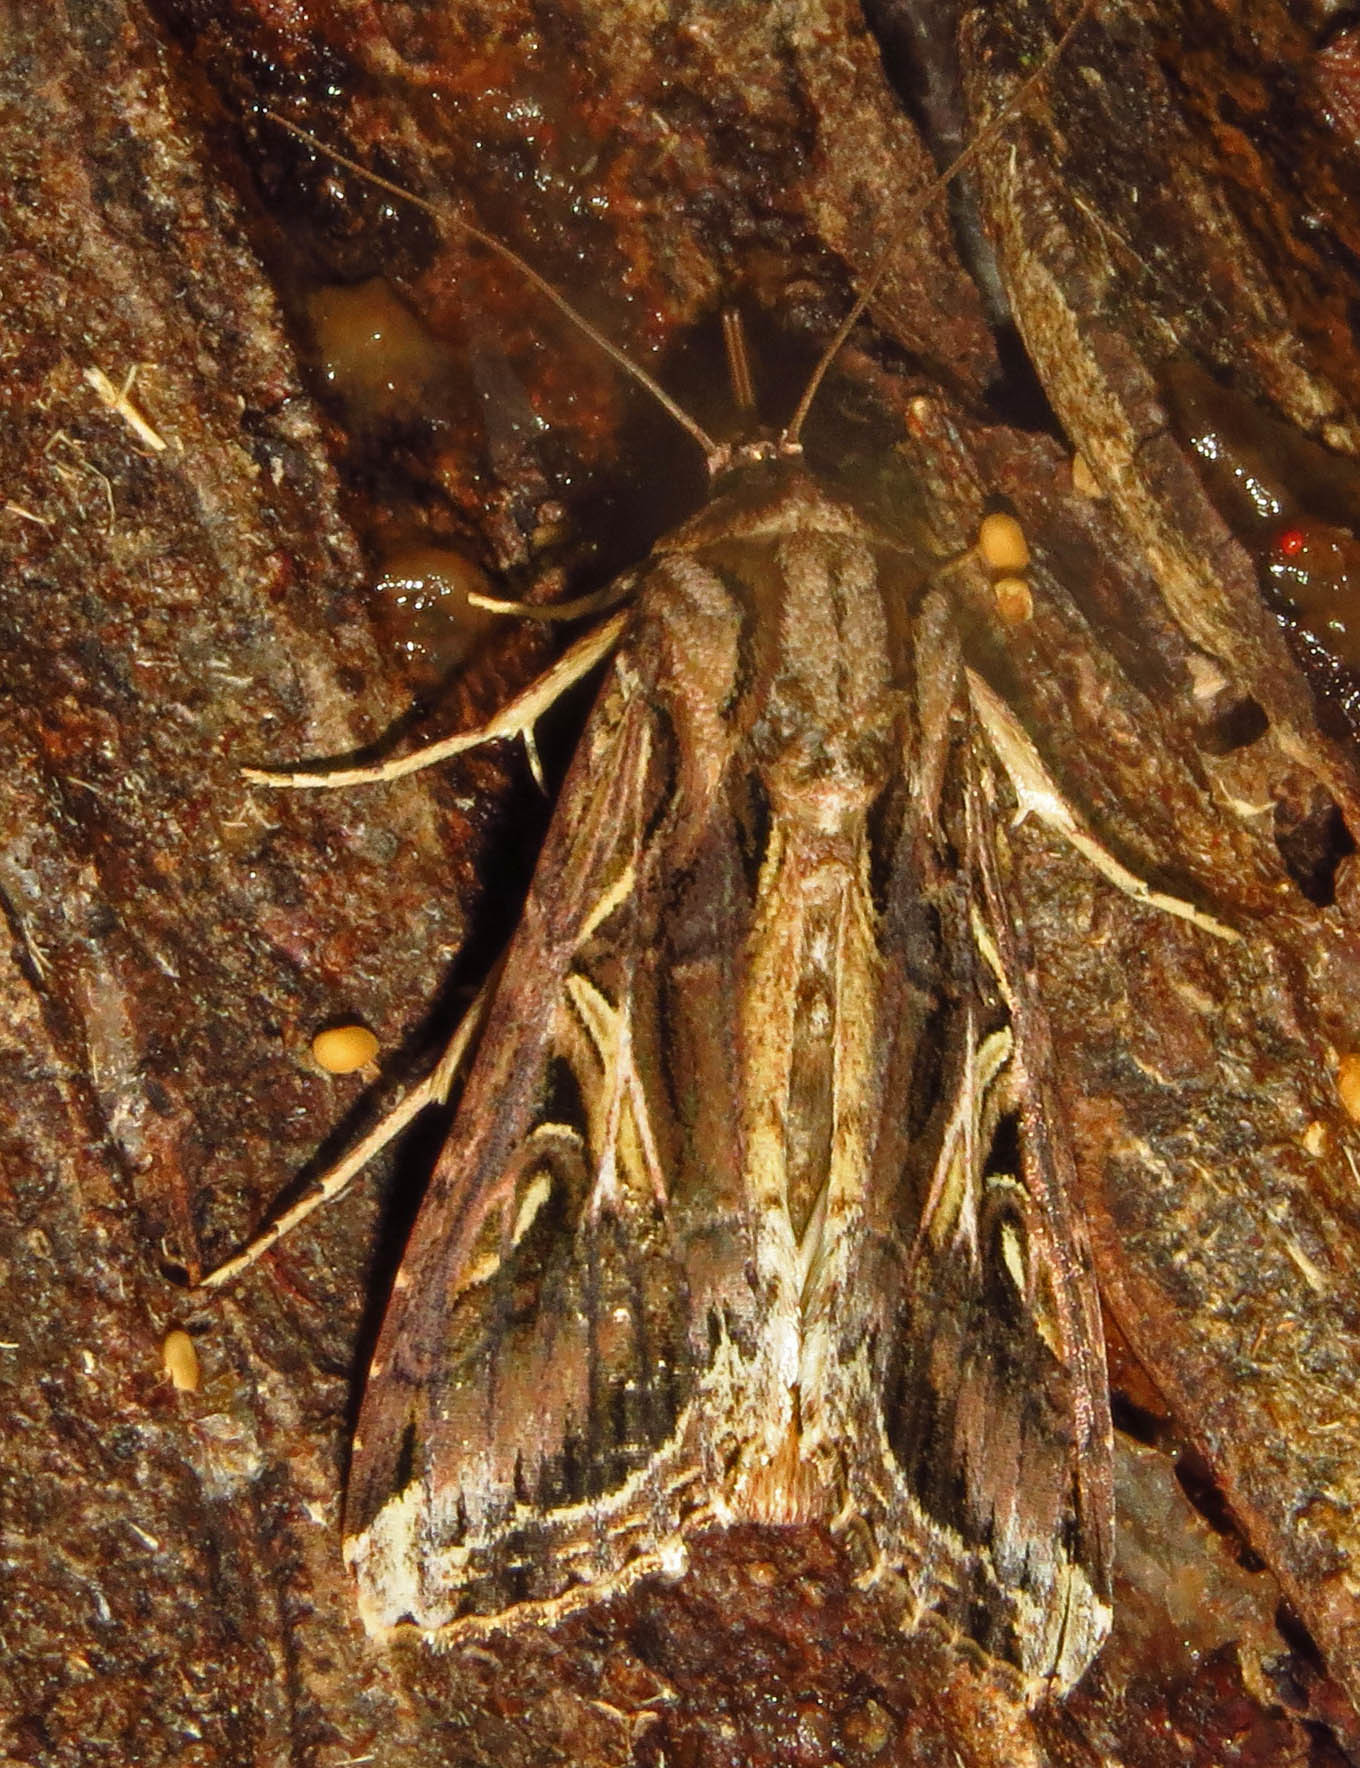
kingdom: Animalia
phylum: Arthropoda
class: Insecta
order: Lepidoptera
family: Noctuidae
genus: Spodoptera
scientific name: Spodoptera dolichos
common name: Sweetpotato armyworm
